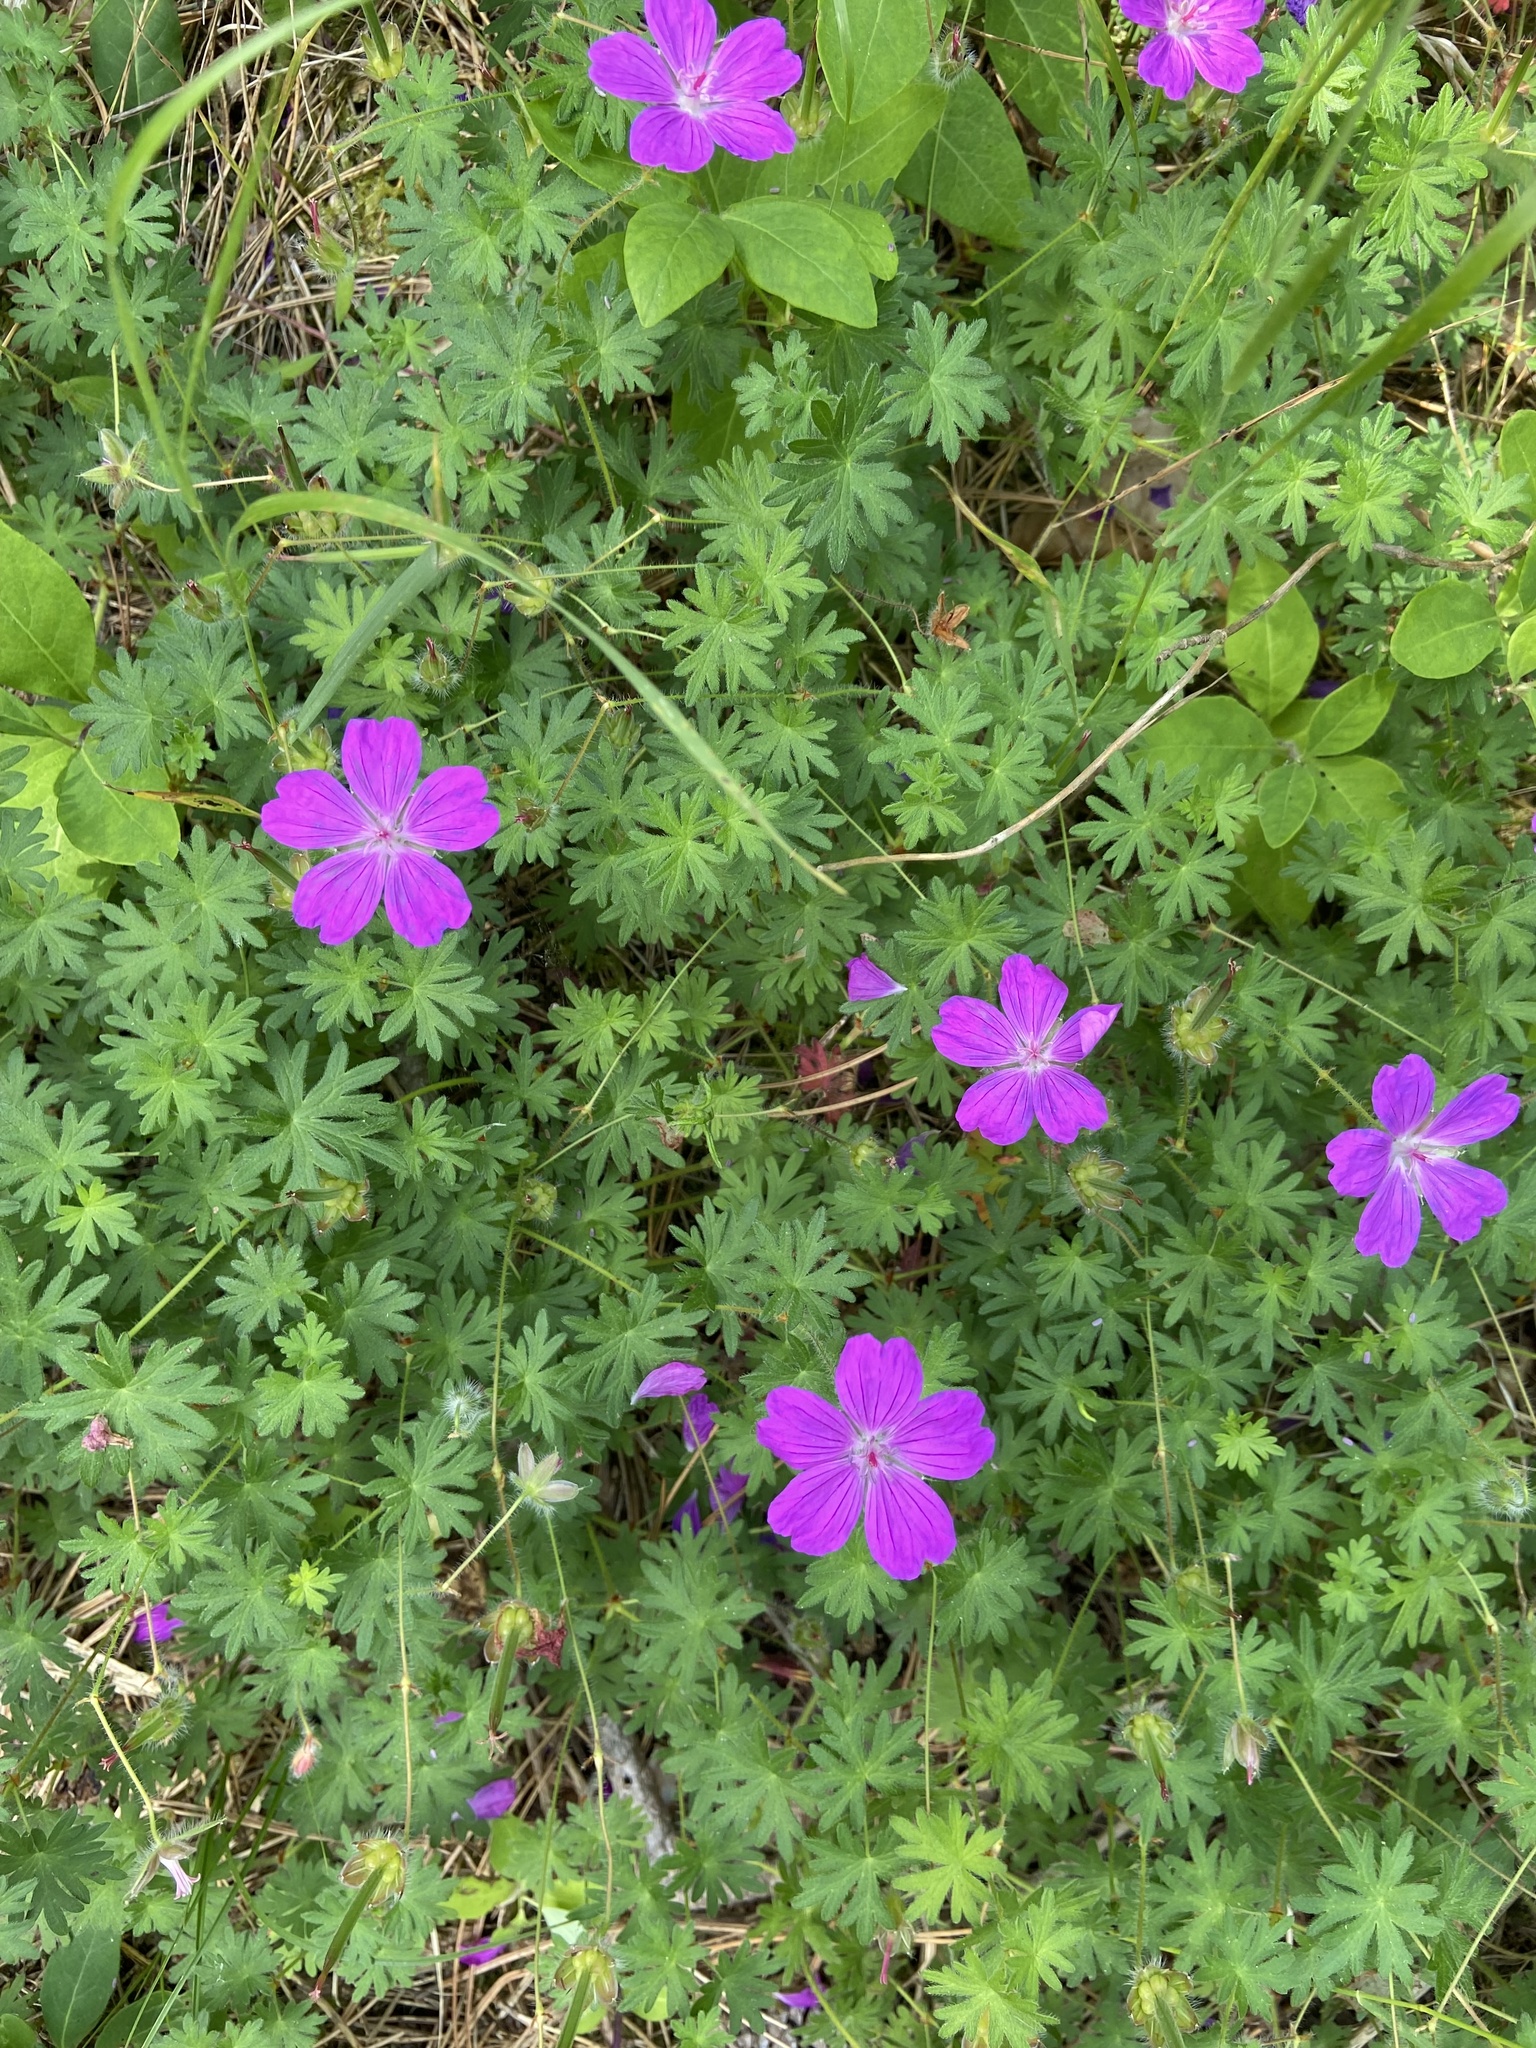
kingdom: Plantae
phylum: Tracheophyta
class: Magnoliopsida
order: Geraniales
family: Geraniaceae
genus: Geranium
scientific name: Geranium sanguineum
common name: Bloody crane's-bill
